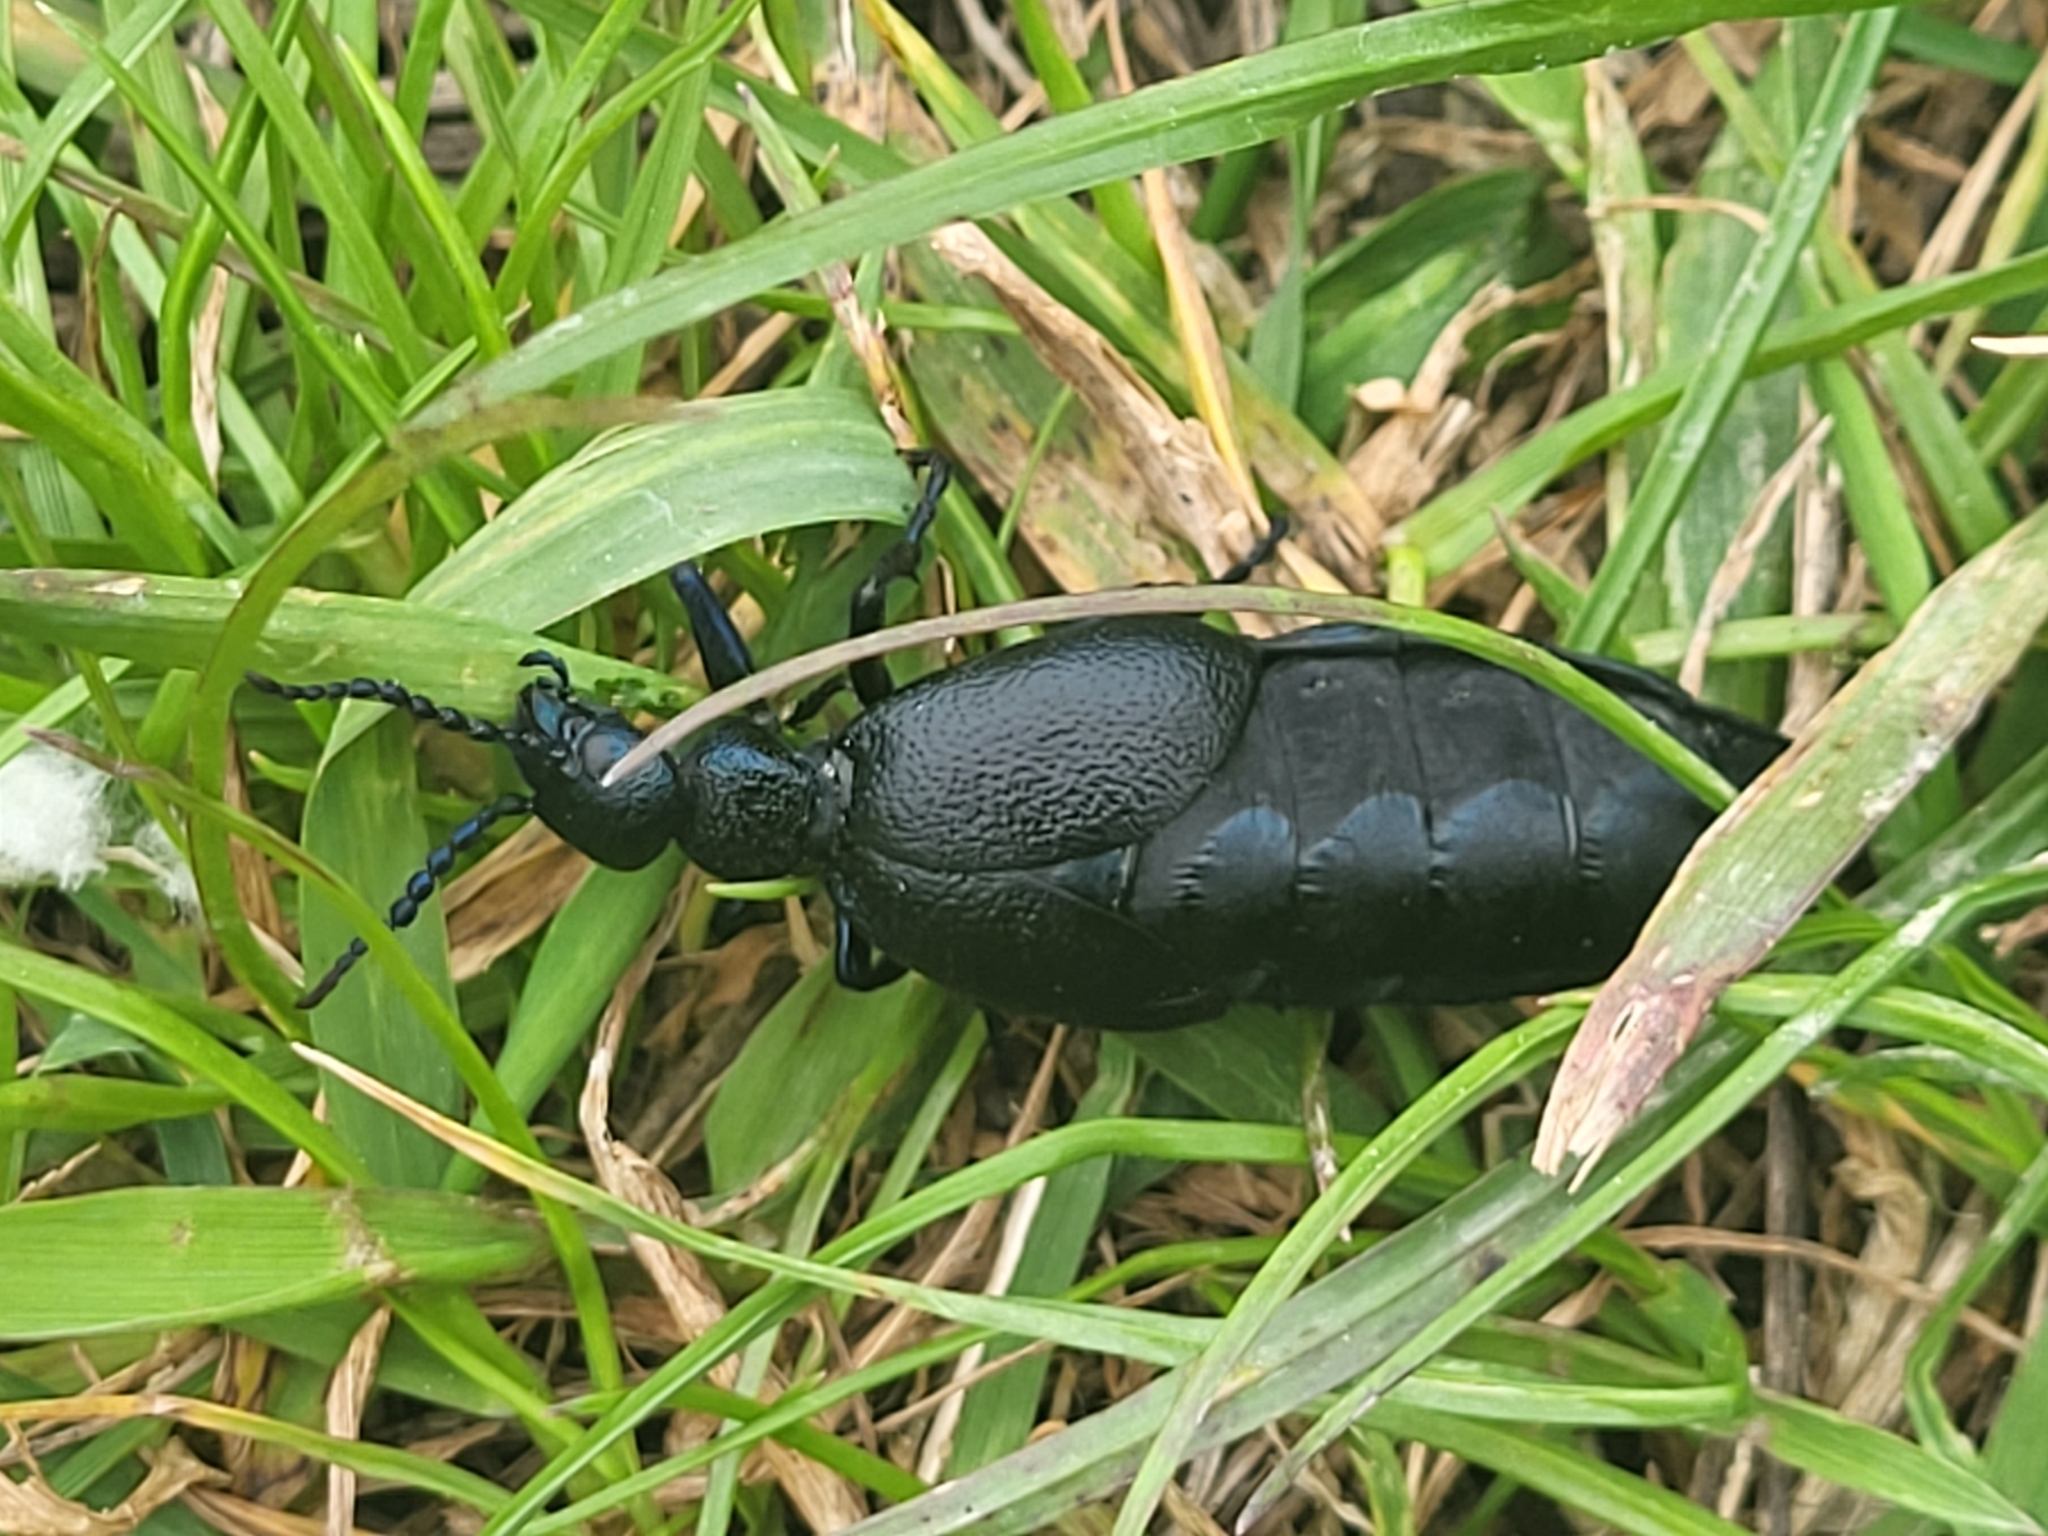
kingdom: Animalia
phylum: Arthropoda
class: Insecta
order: Coleoptera
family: Meloidae
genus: Meloe
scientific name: Meloe proscarabaeus
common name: Black oil-beetle
